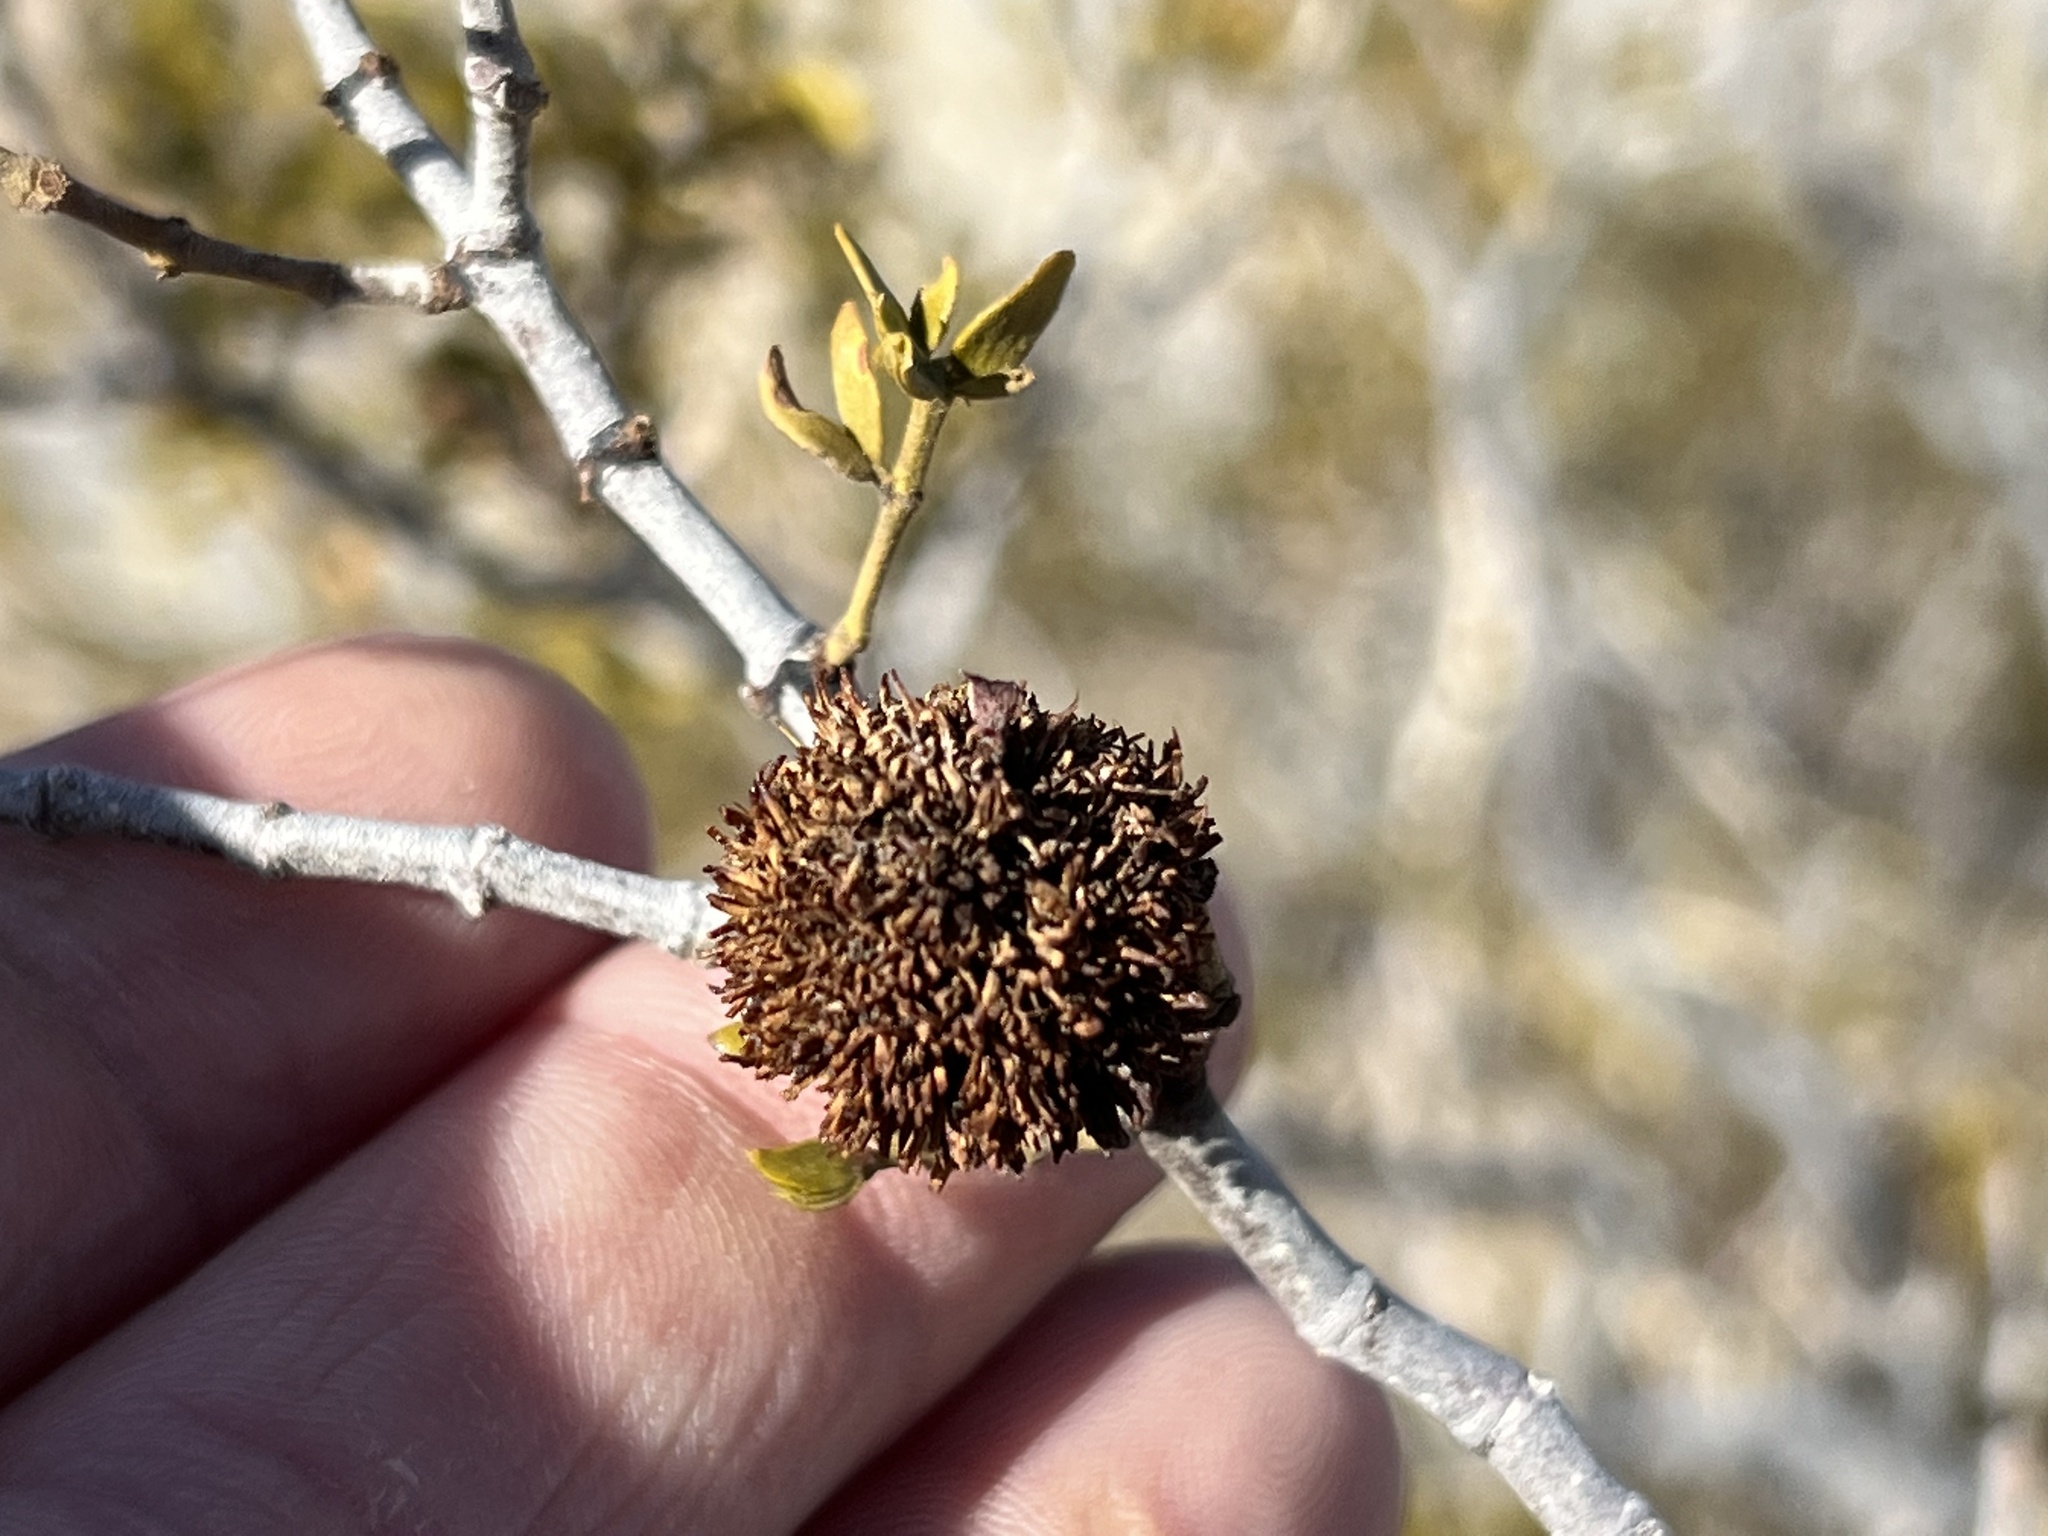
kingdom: Animalia
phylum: Arthropoda
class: Insecta
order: Diptera
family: Cecidomyiidae
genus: Asphondylia
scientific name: Asphondylia auripila
